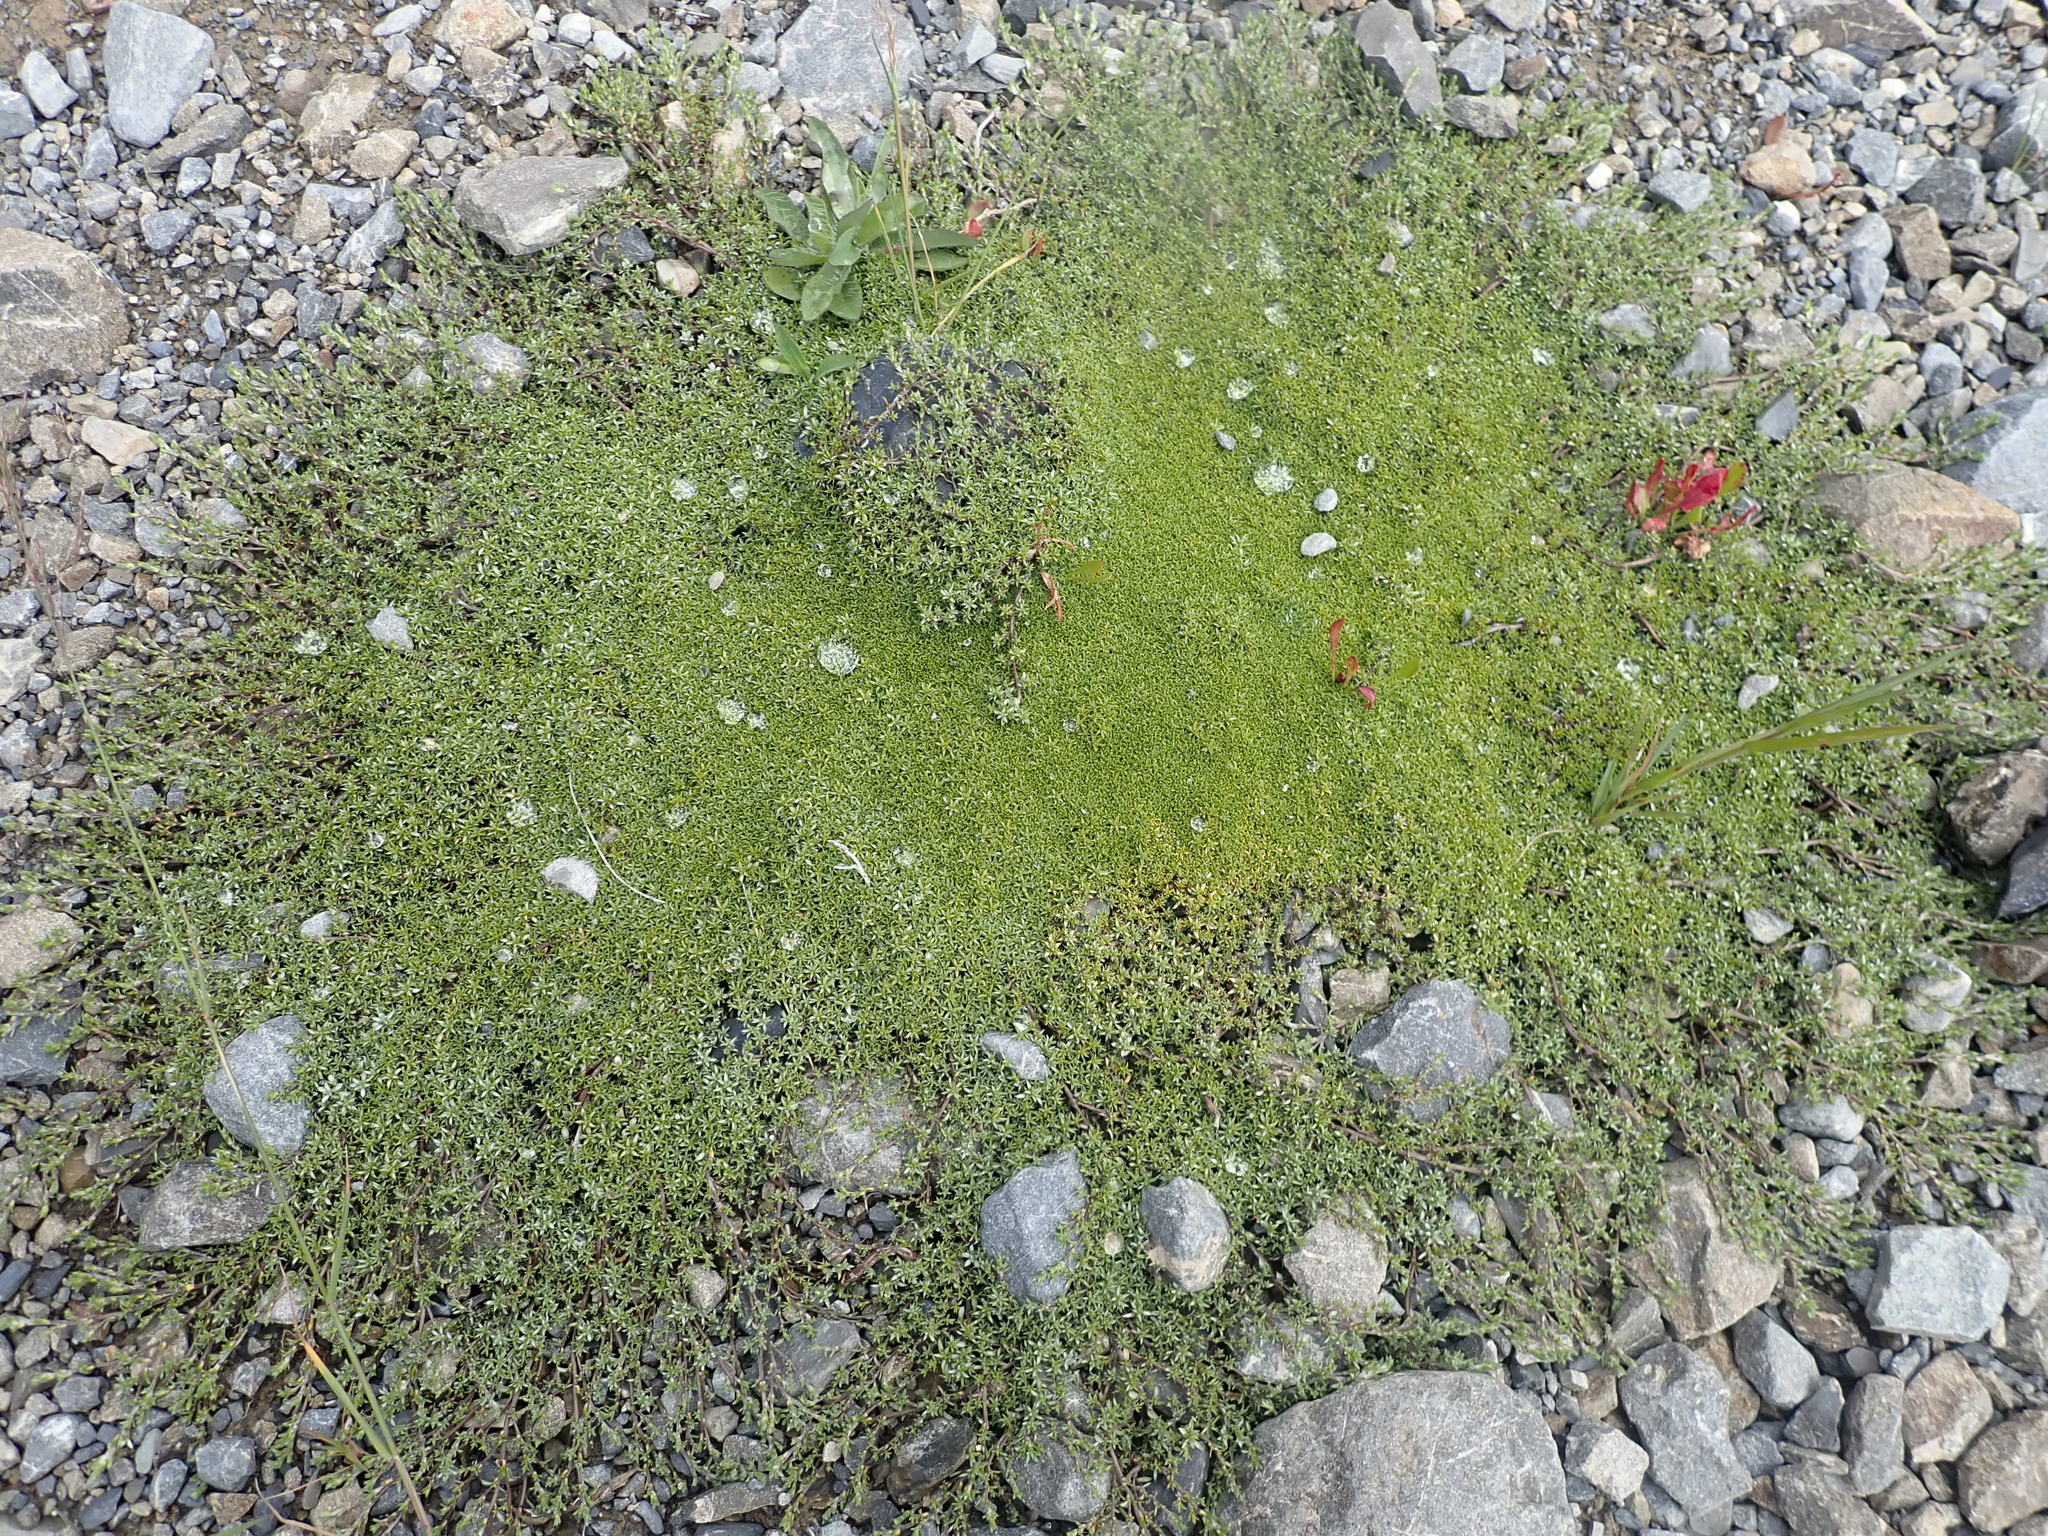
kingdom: Plantae
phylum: Tracheophyta
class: Magnoliopsida
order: Asterales
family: Asteraceae
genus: Raoulia
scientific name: Raoulia tenuicaulis
